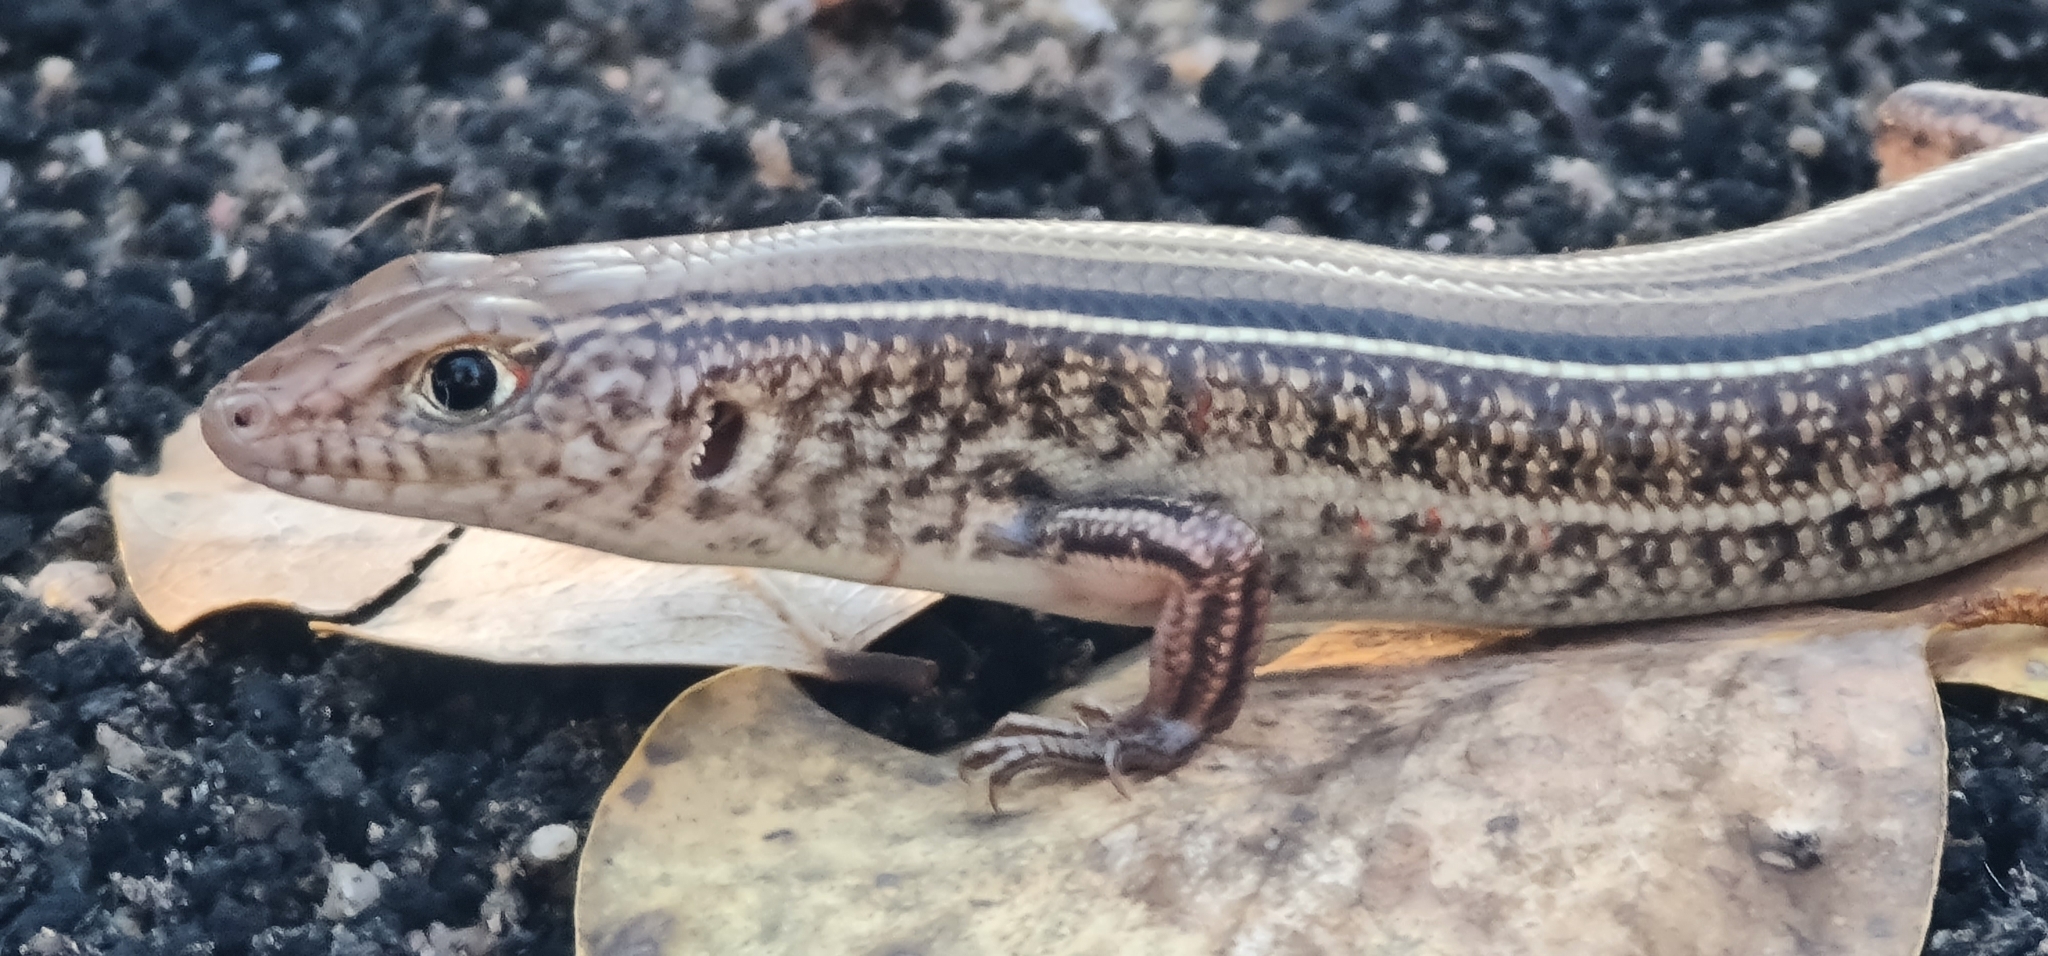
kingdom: Animalia
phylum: Chordata
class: Squamata
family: Scincidae
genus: Ctenotus
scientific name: Ctenotus borealis
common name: White-faced ctenotus
